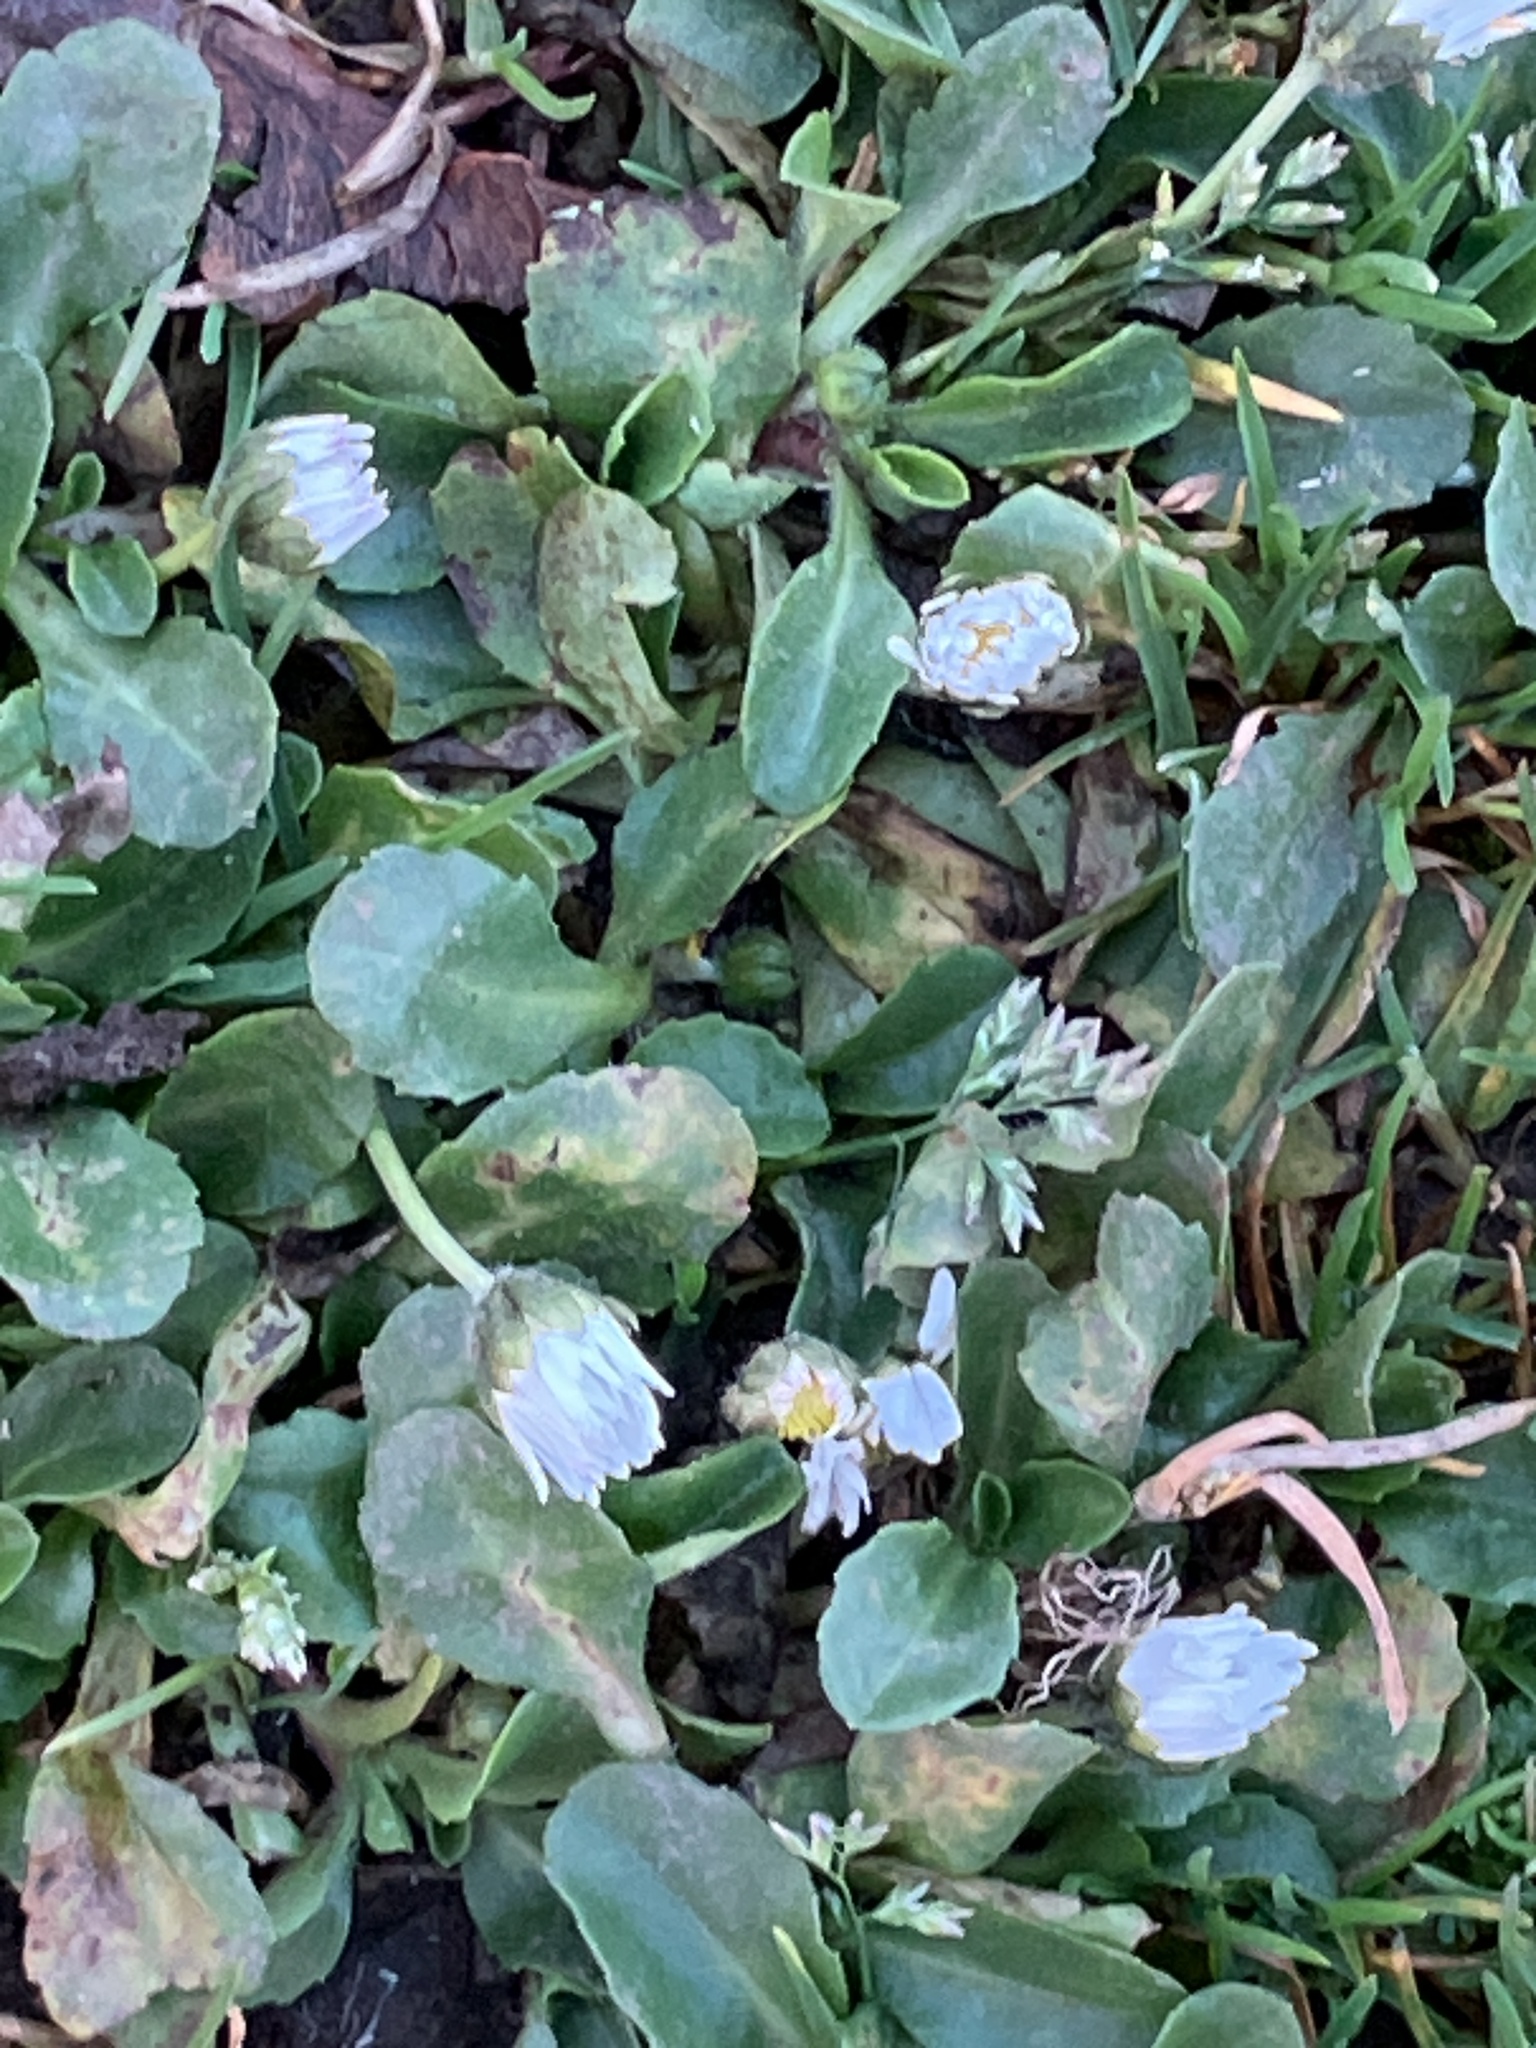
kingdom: Plantae
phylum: Tracheophyta
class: Magnoliopsida
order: Asterales
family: Asteraceae
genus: Bellis
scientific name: Bellis perennis
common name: Lawndaisy
